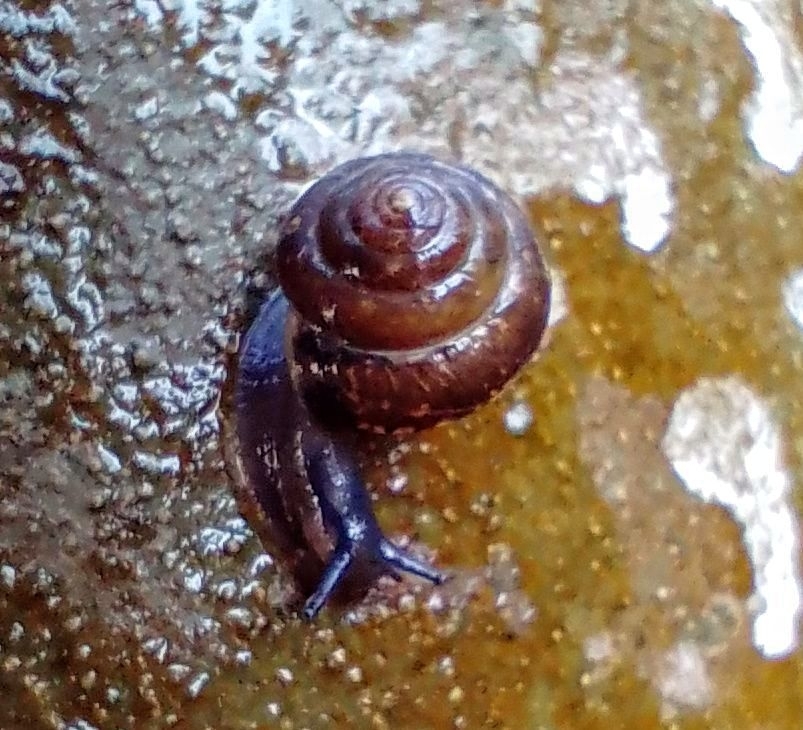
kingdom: Animalia
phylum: Mollusca
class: Gastropoda
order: Stylommatophora
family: Hygromiidae
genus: Hygromia
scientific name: Hygromia cinctella
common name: Girdled snail
